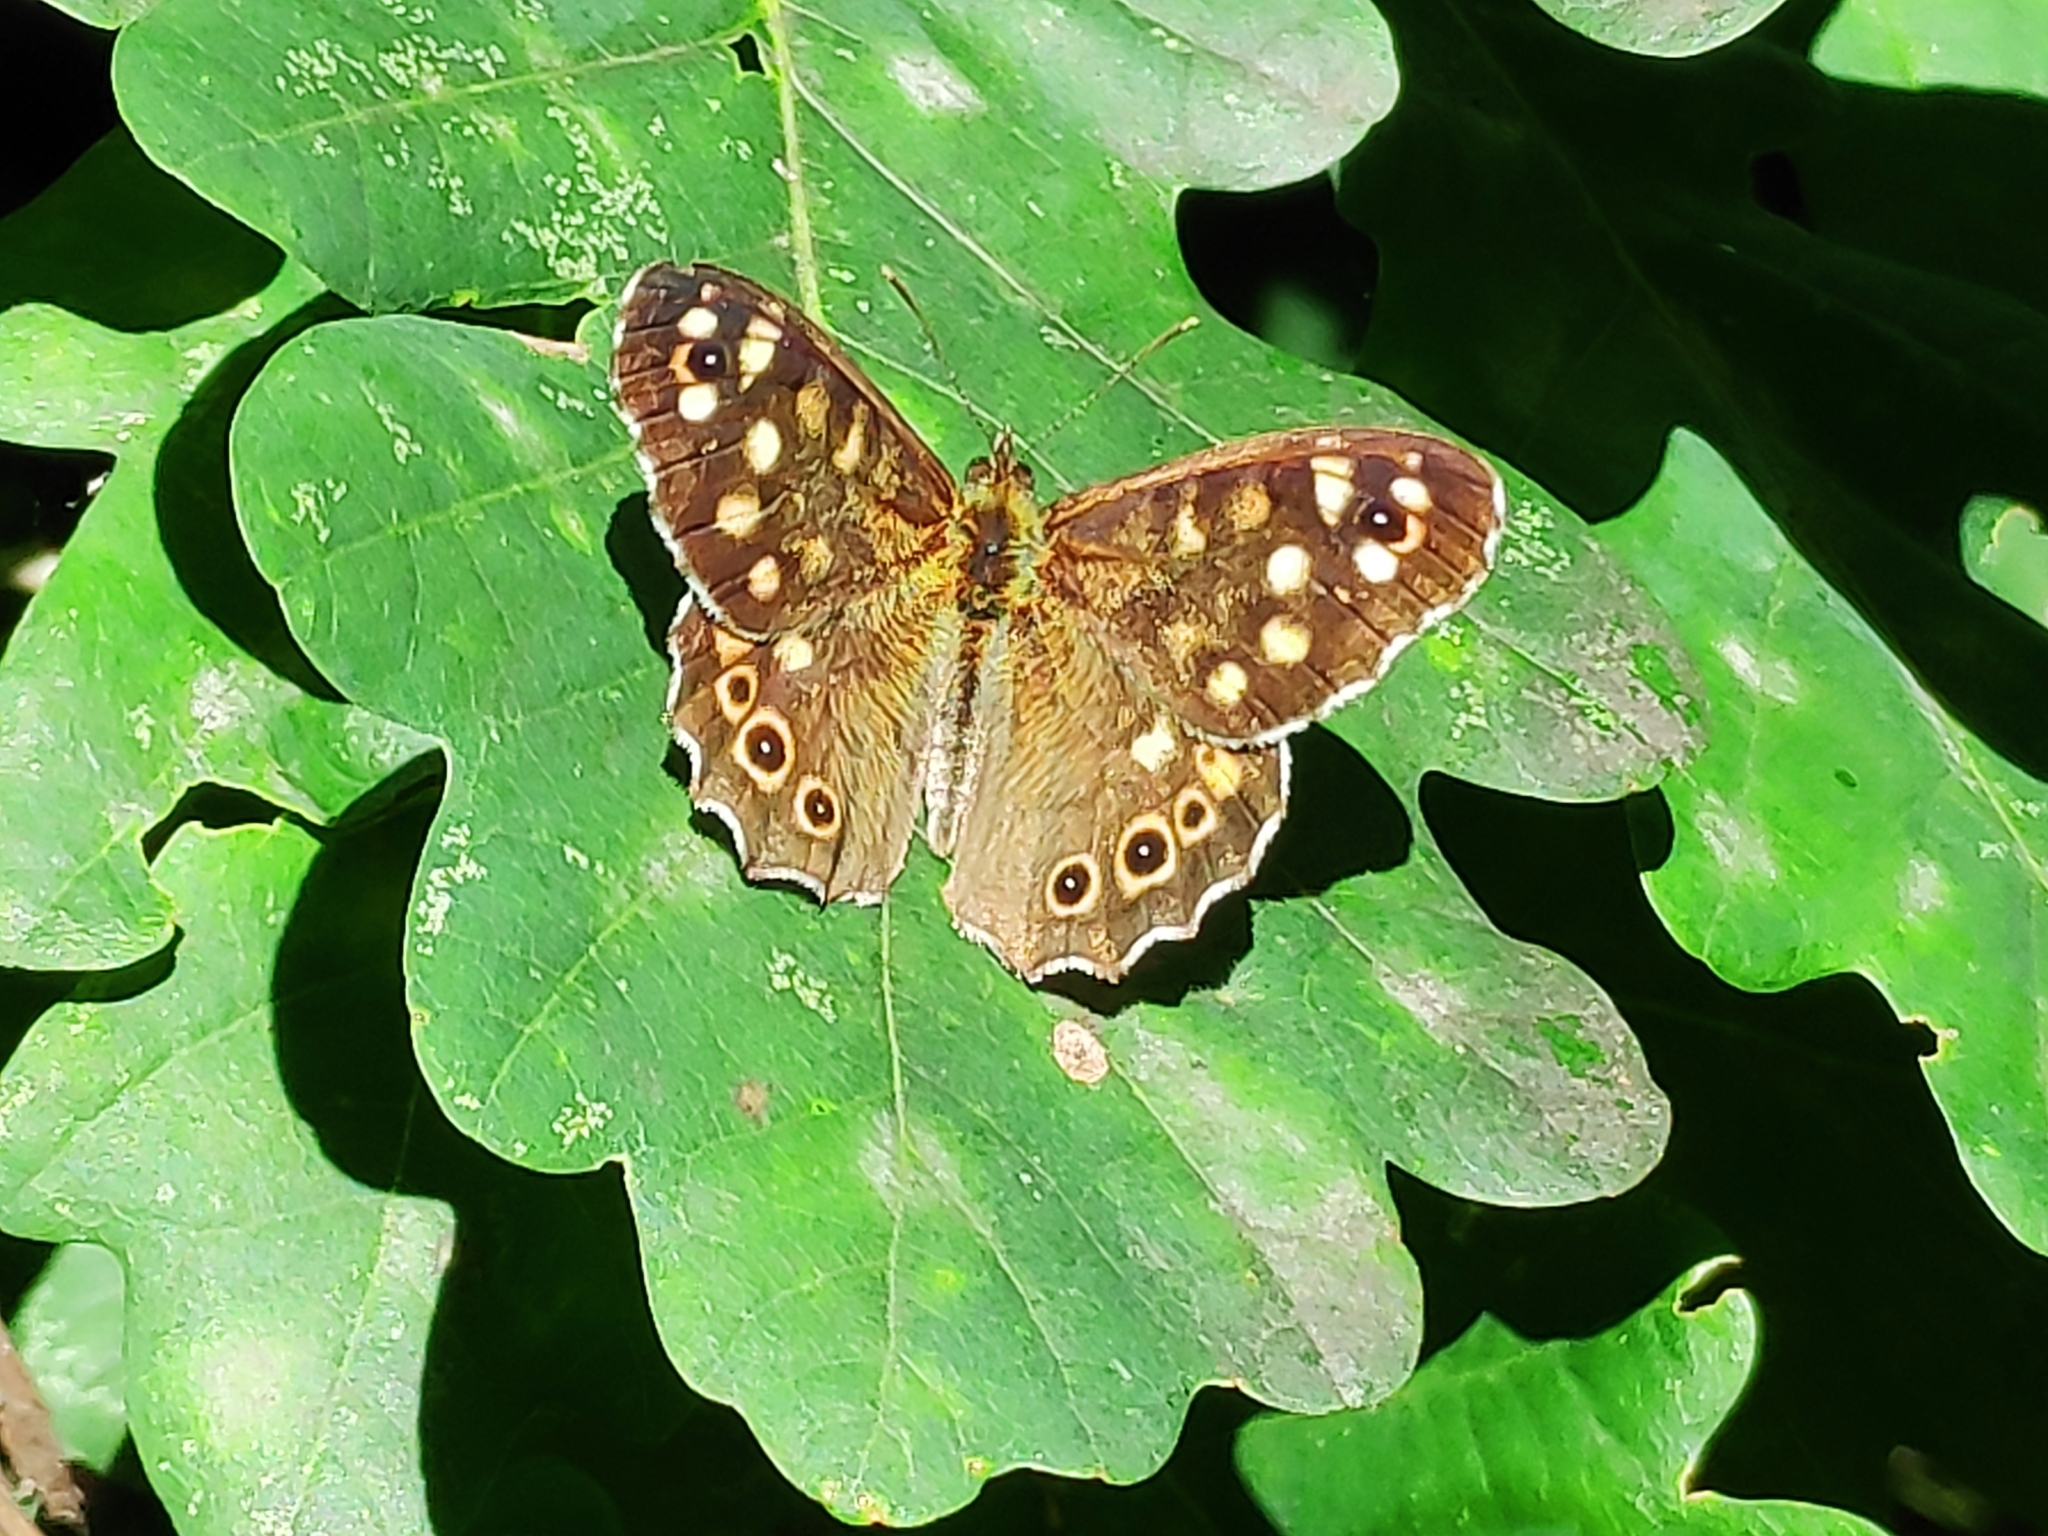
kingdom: Animalia
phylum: Arthropoda
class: Insecta
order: Lepidoptera
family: Nymphalidae
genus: Pararge
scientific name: Pararge aegeria
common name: Speckled wood
